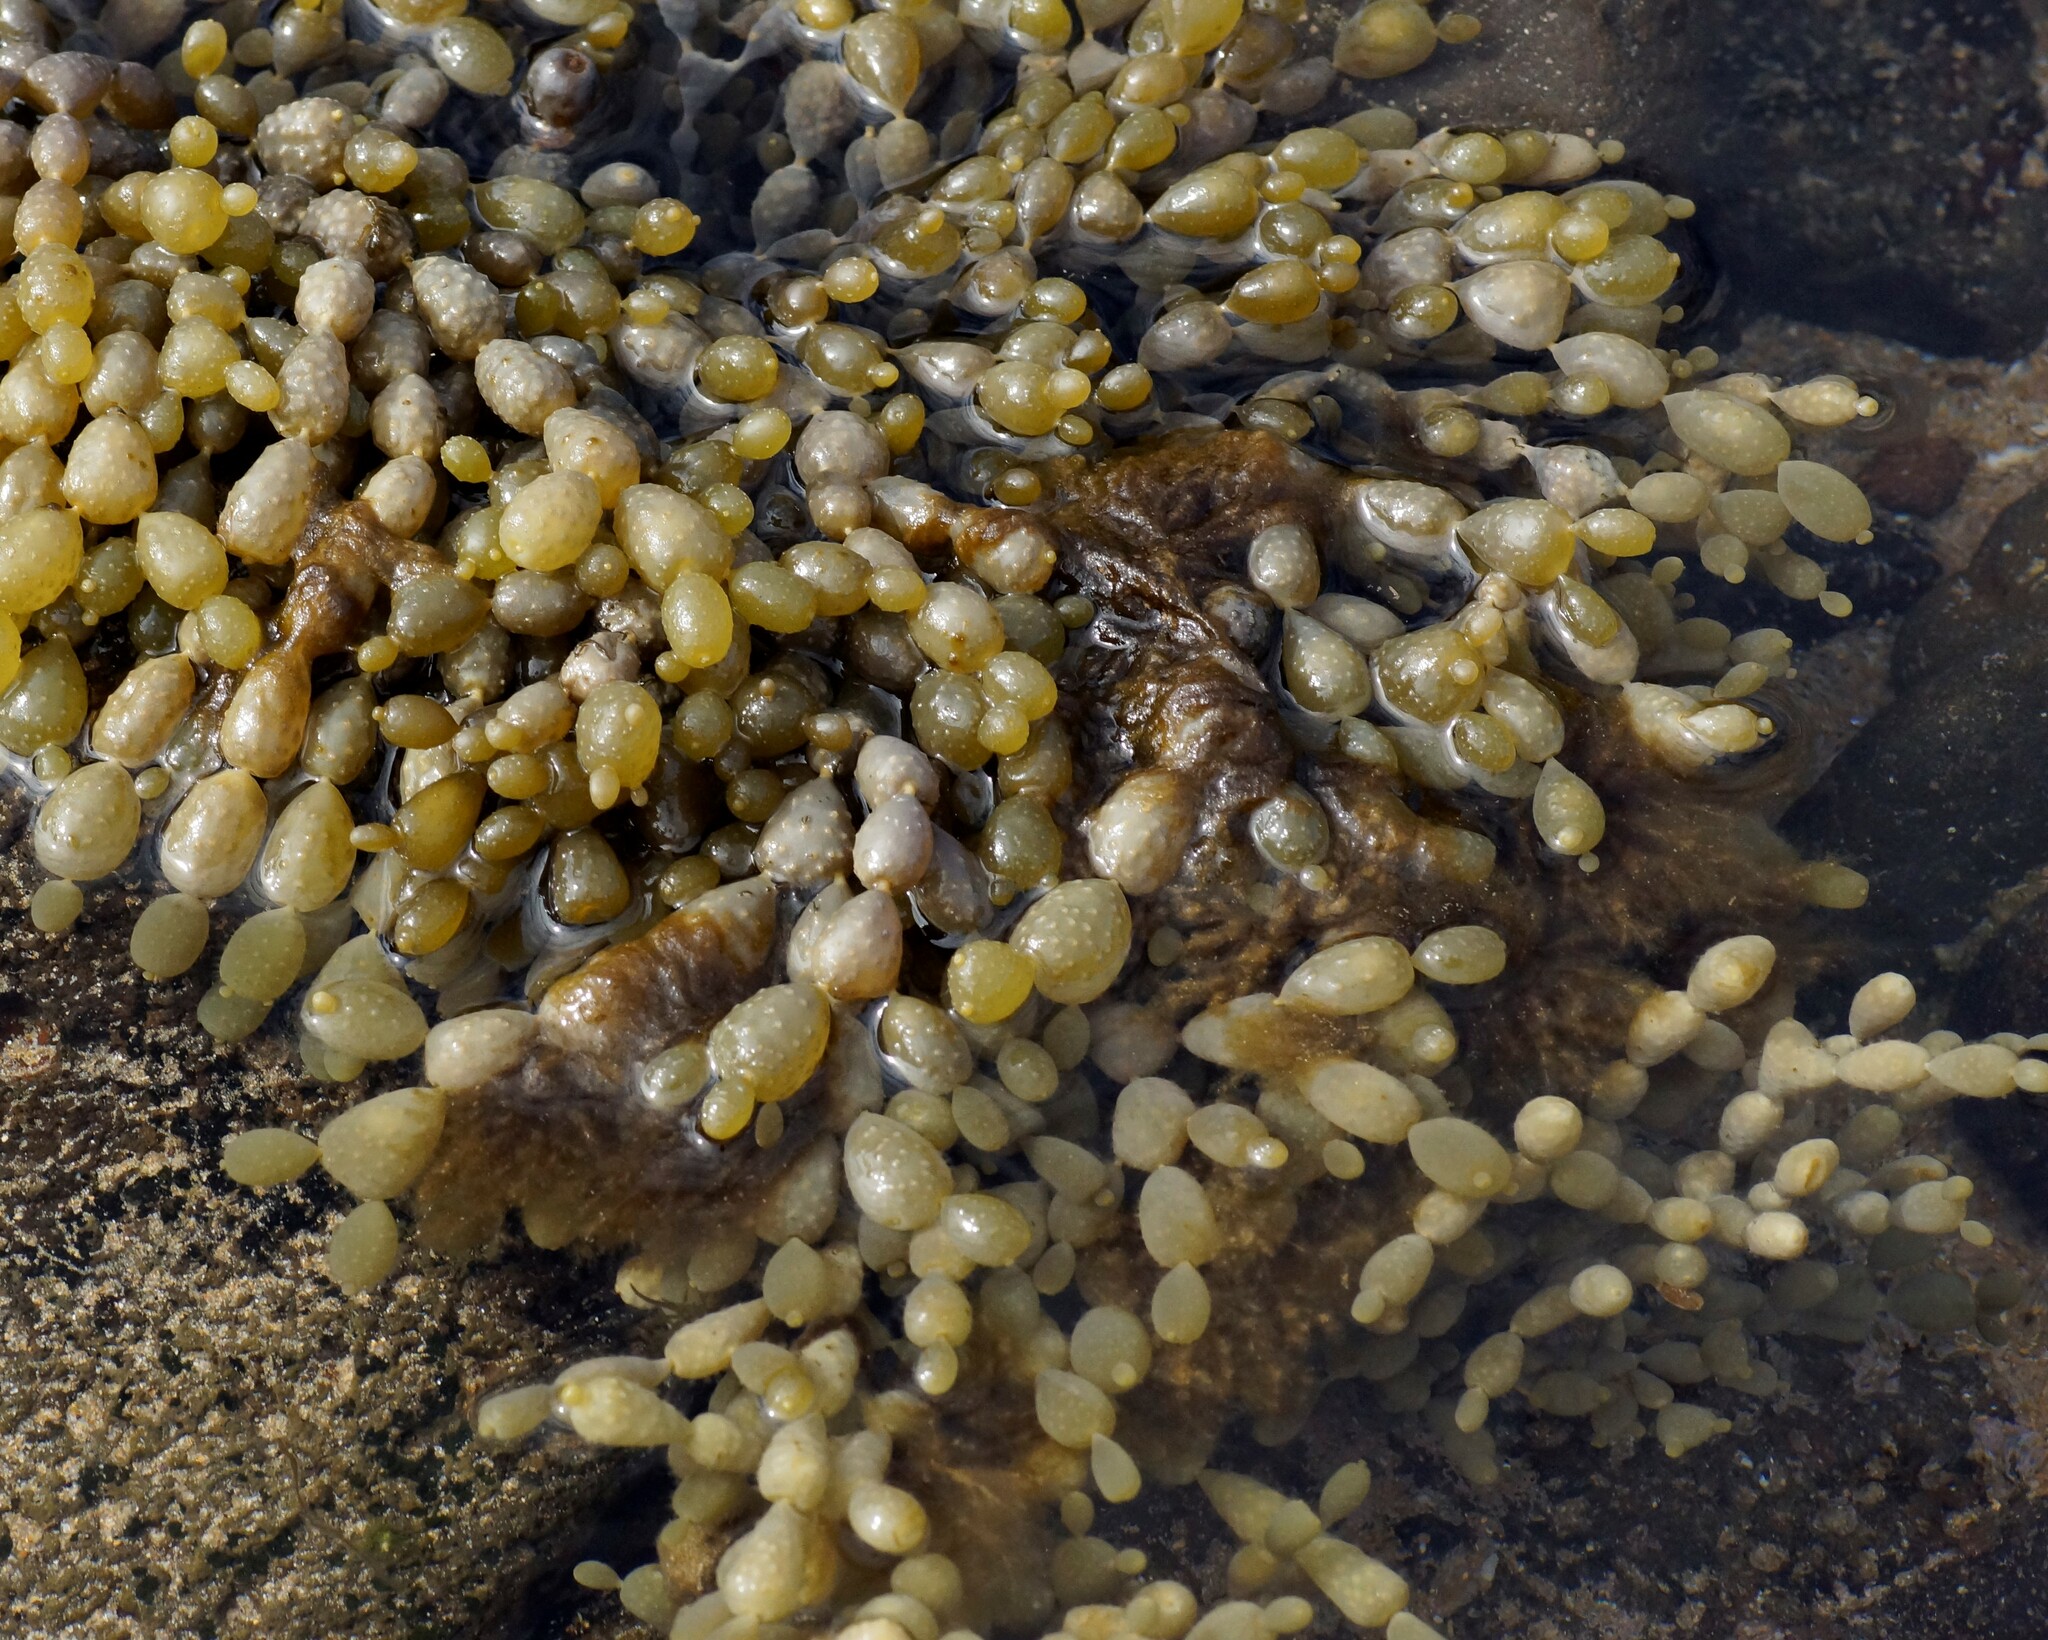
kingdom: Chromista
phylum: Ochrophyta
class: Phaeophyceae
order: Fucales
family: Hormosiraceae
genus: Hormosira
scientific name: Hormosira banksii
